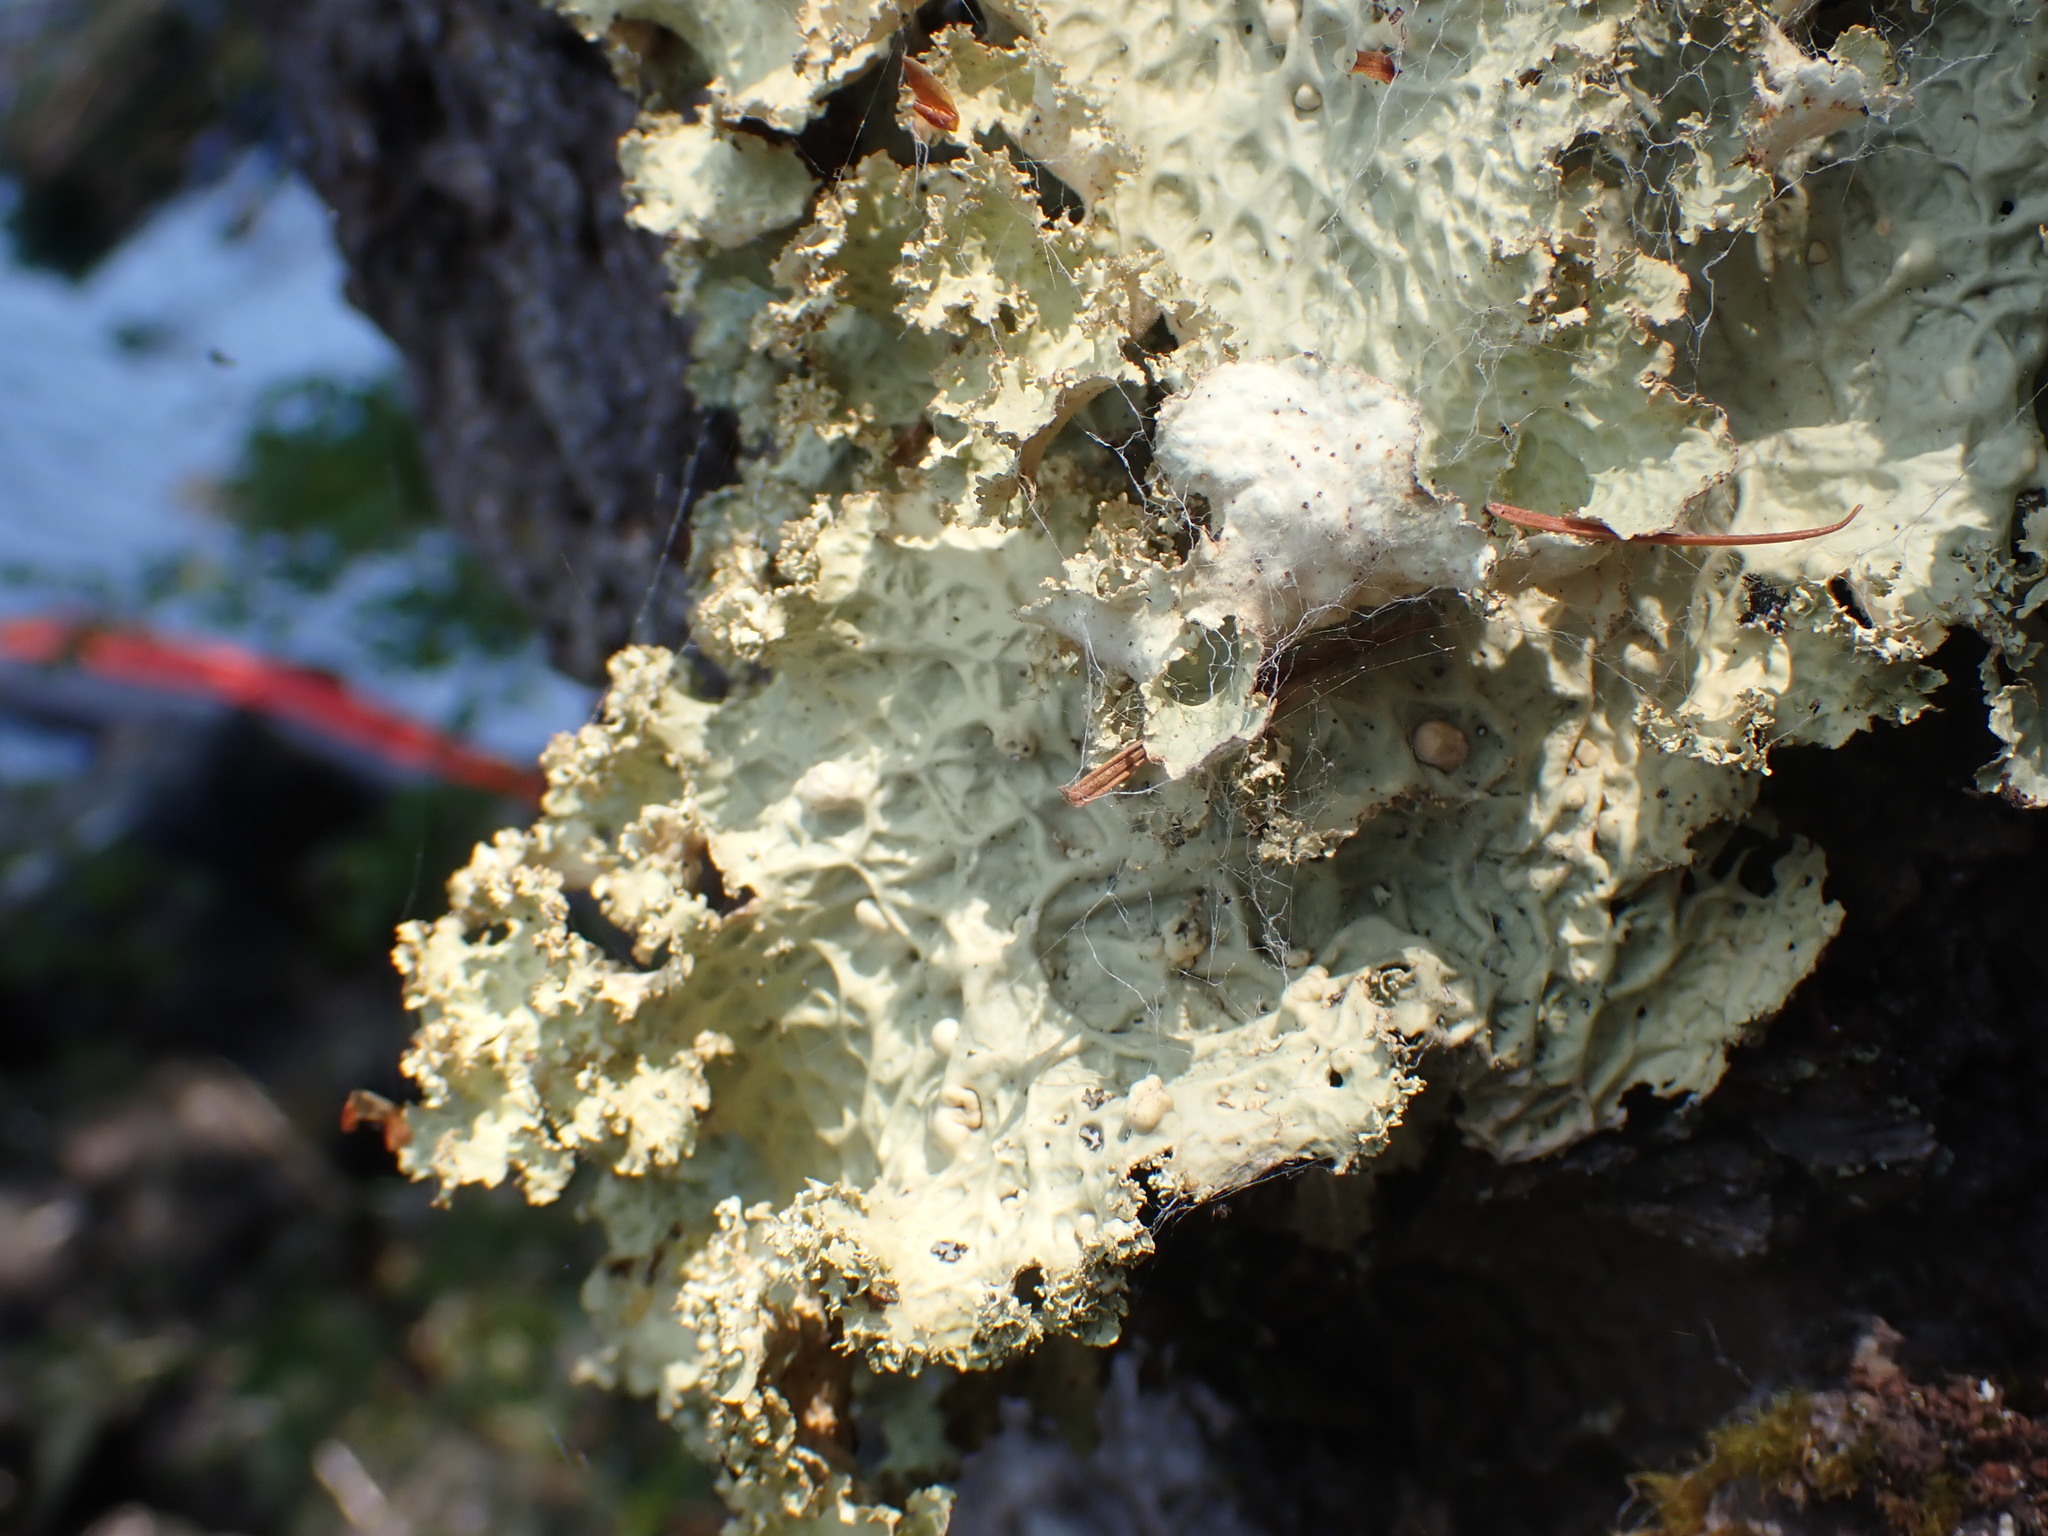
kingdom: Fungi
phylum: Ascomycota
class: Lecanoromycetes
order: Peltigerales
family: Lobariaceae
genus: Lobaria
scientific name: Lobaria oregana
